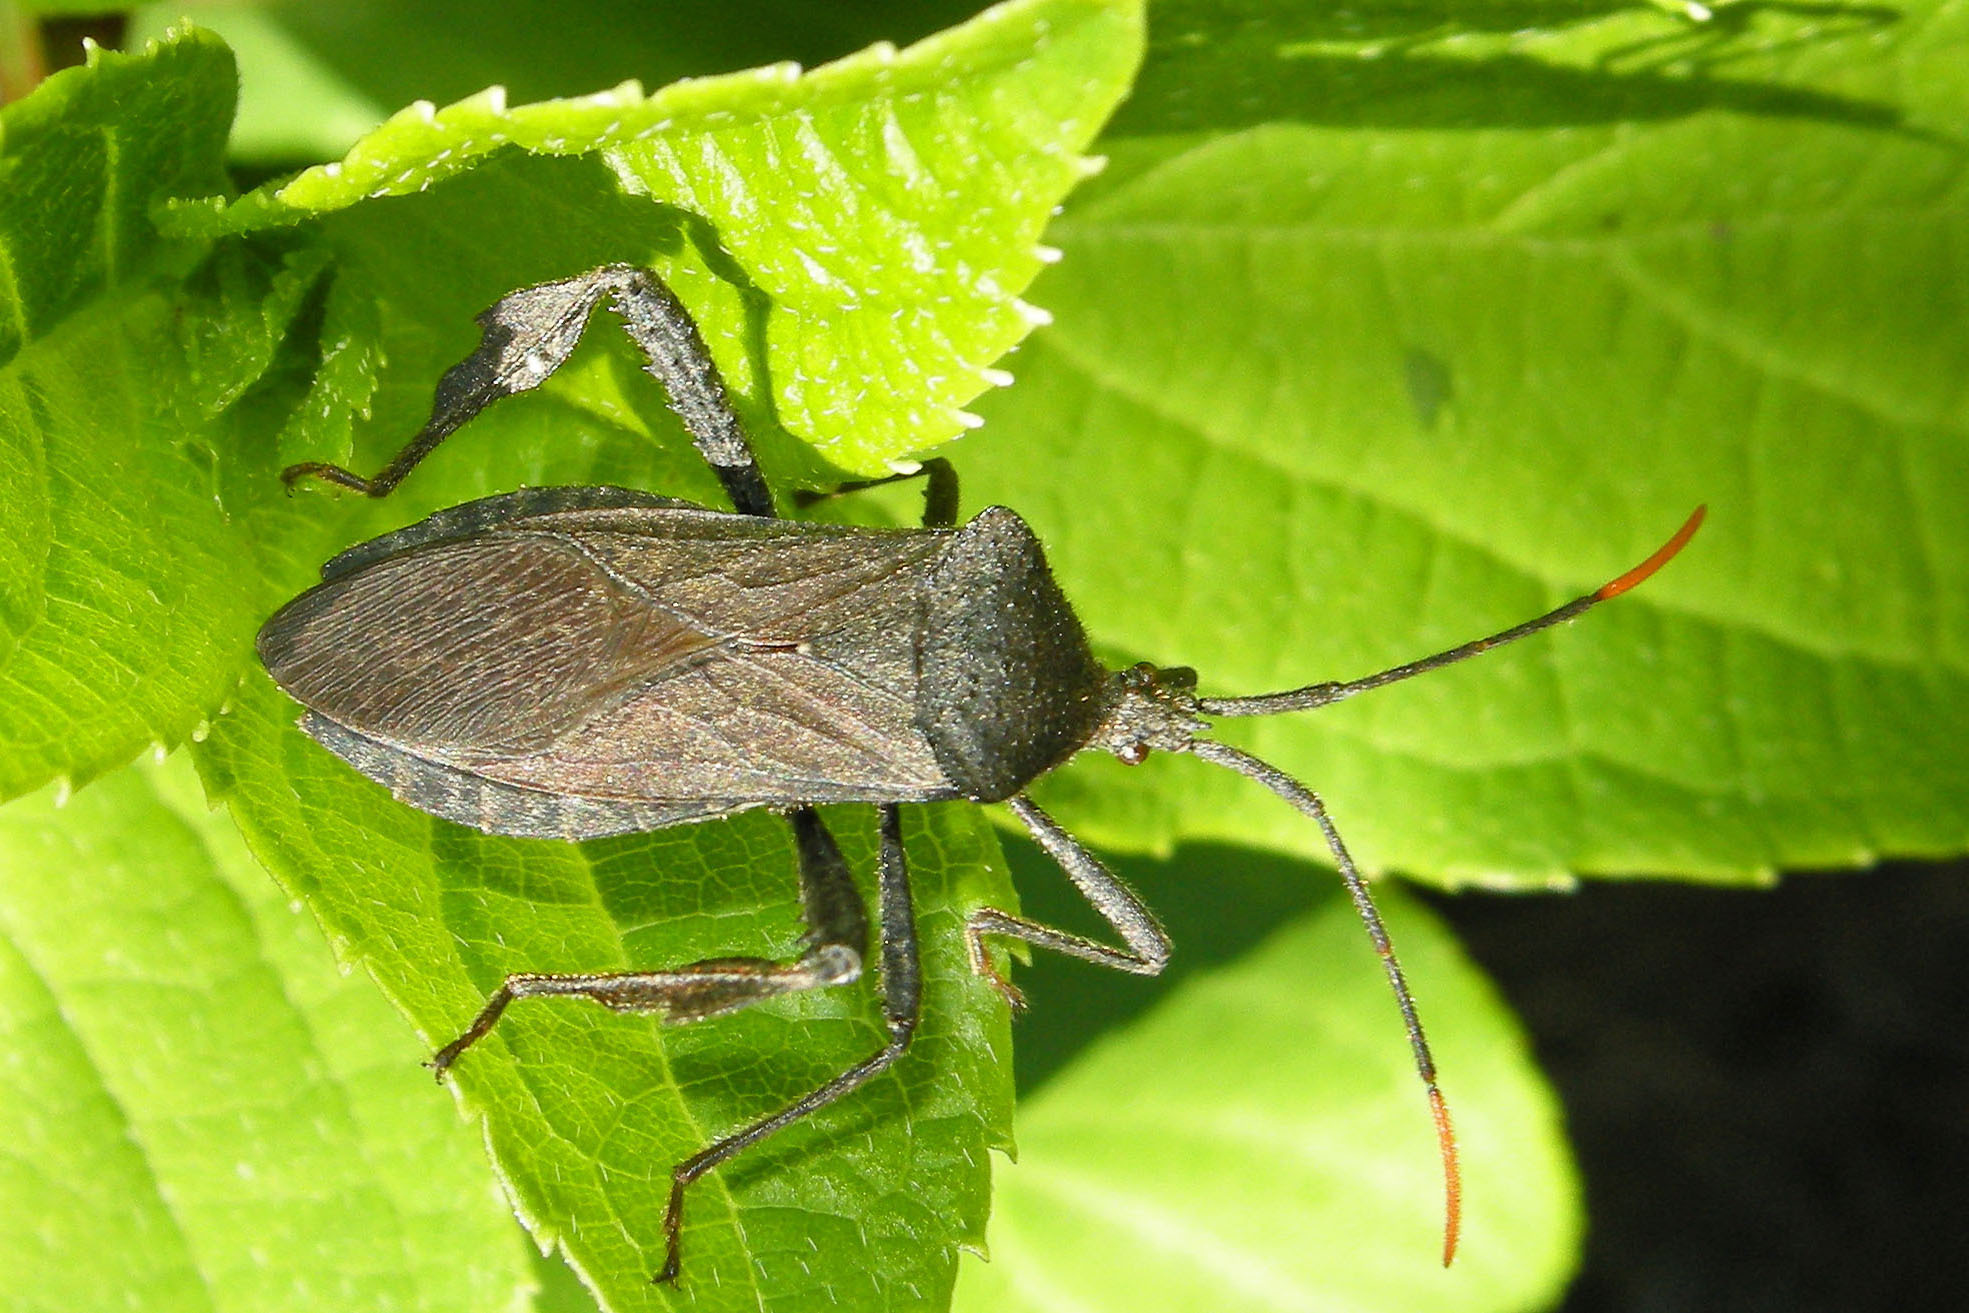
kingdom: Animalia
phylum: Arthropoda
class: Insecta
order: Hemiptera
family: Coreidae
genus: Acanthocephala
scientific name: Acanthocephala terminalis
